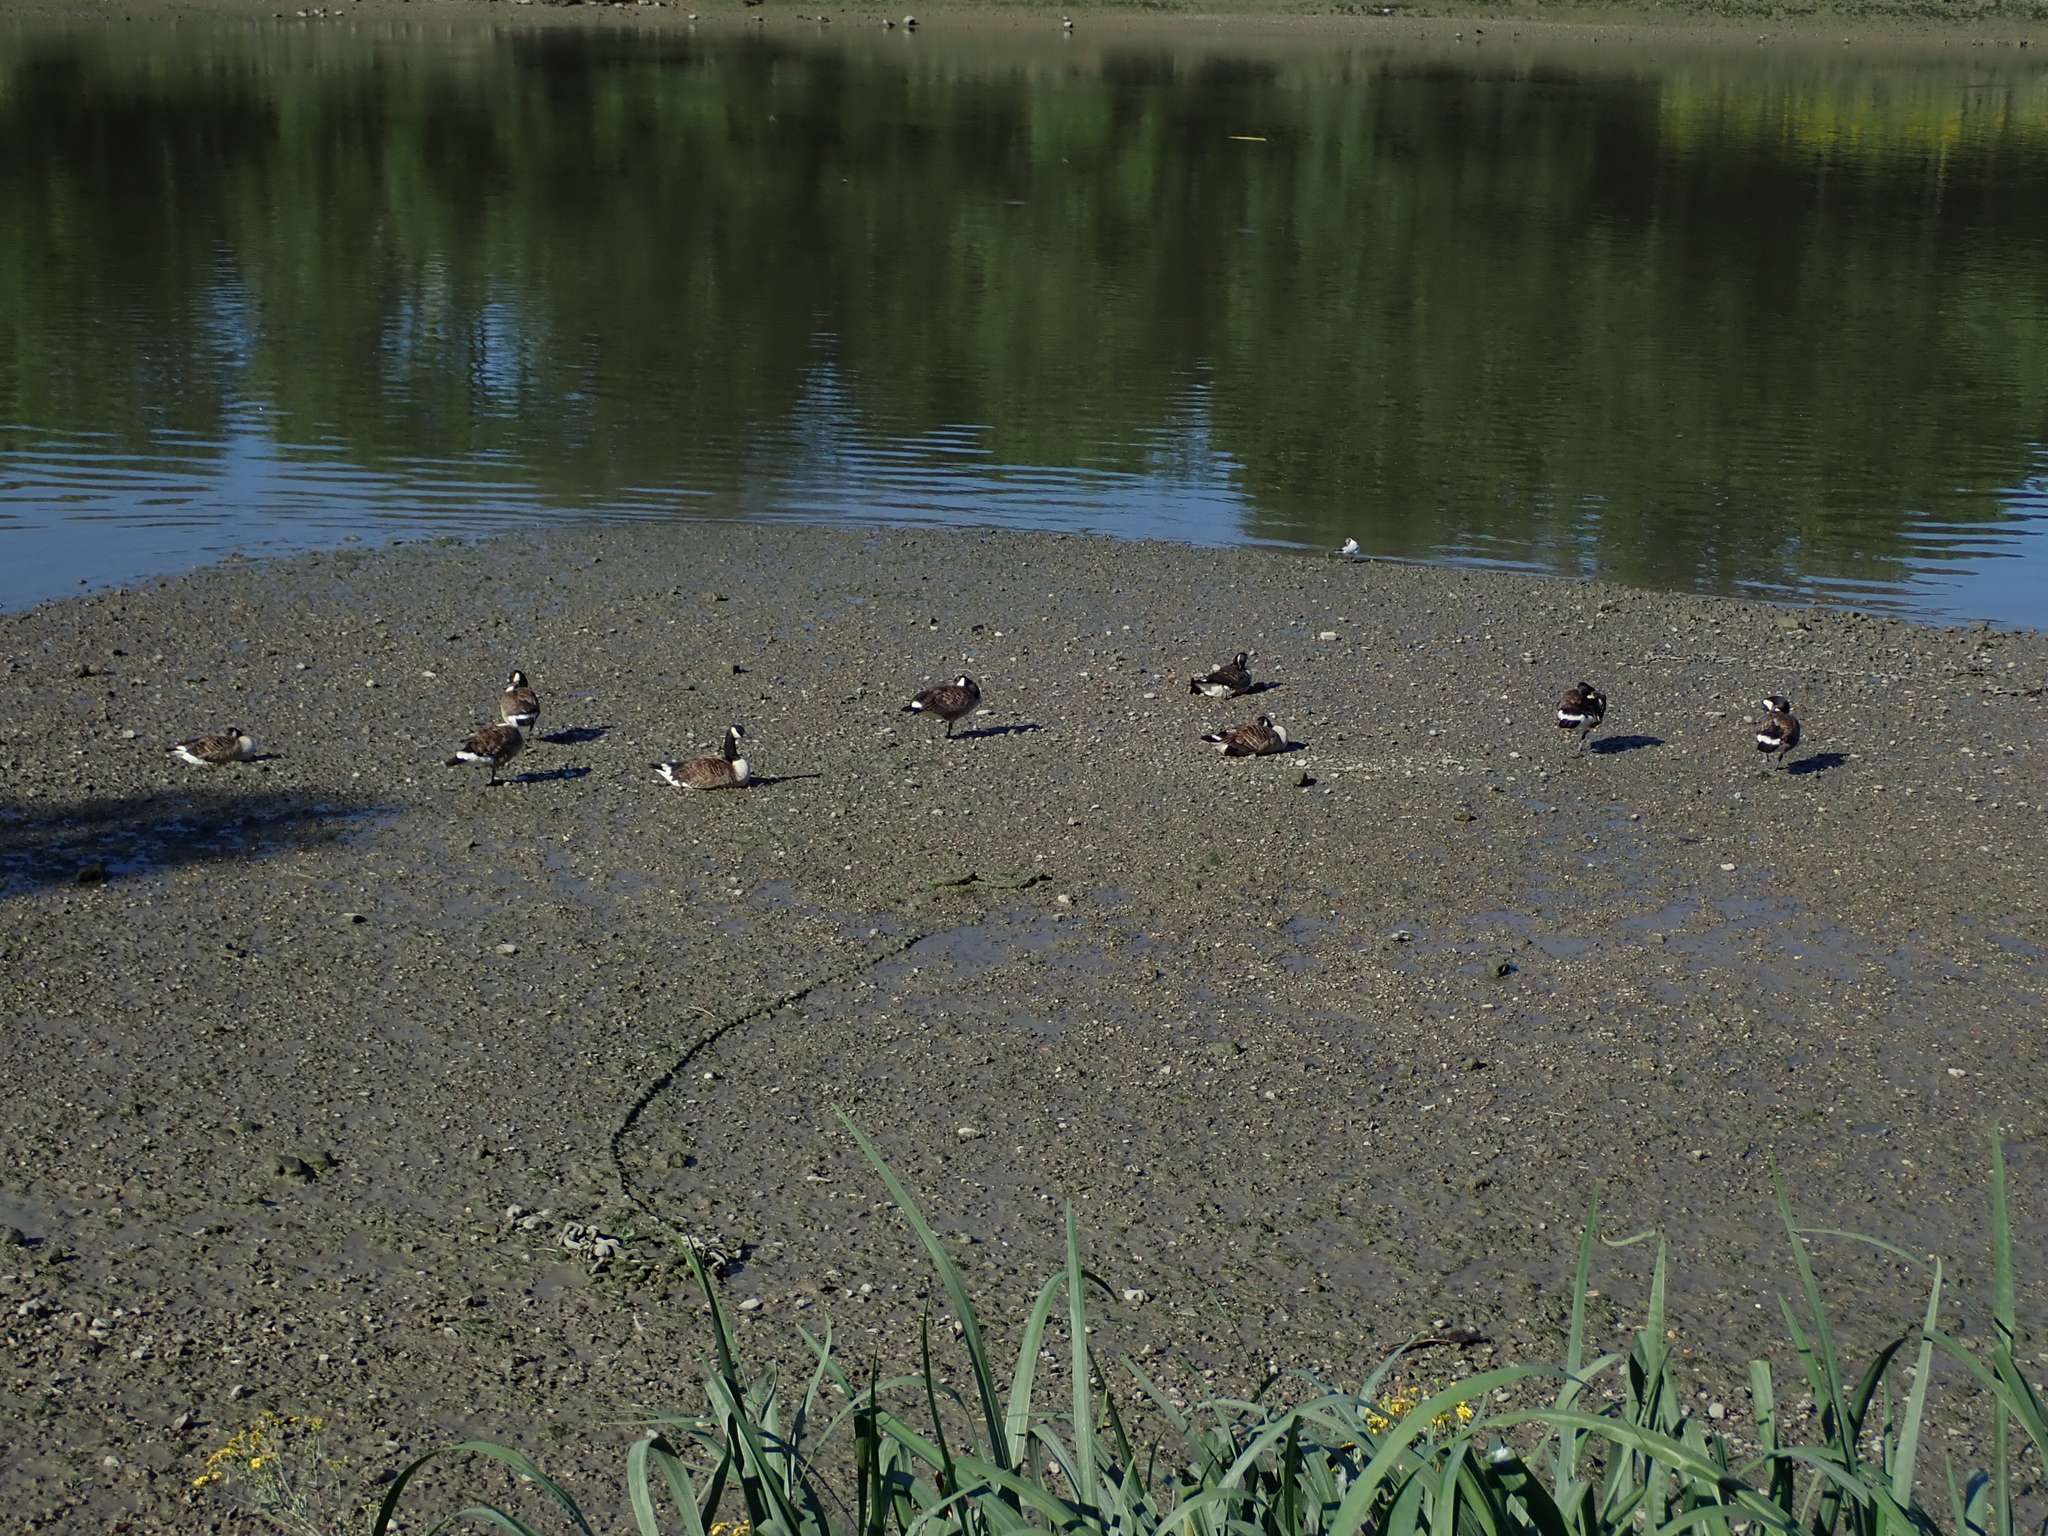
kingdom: Animalia
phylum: Chordata
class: Aves
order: Anseriformes
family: Anatidae
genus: Branta
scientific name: Branta canadensis
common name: Canada goose
